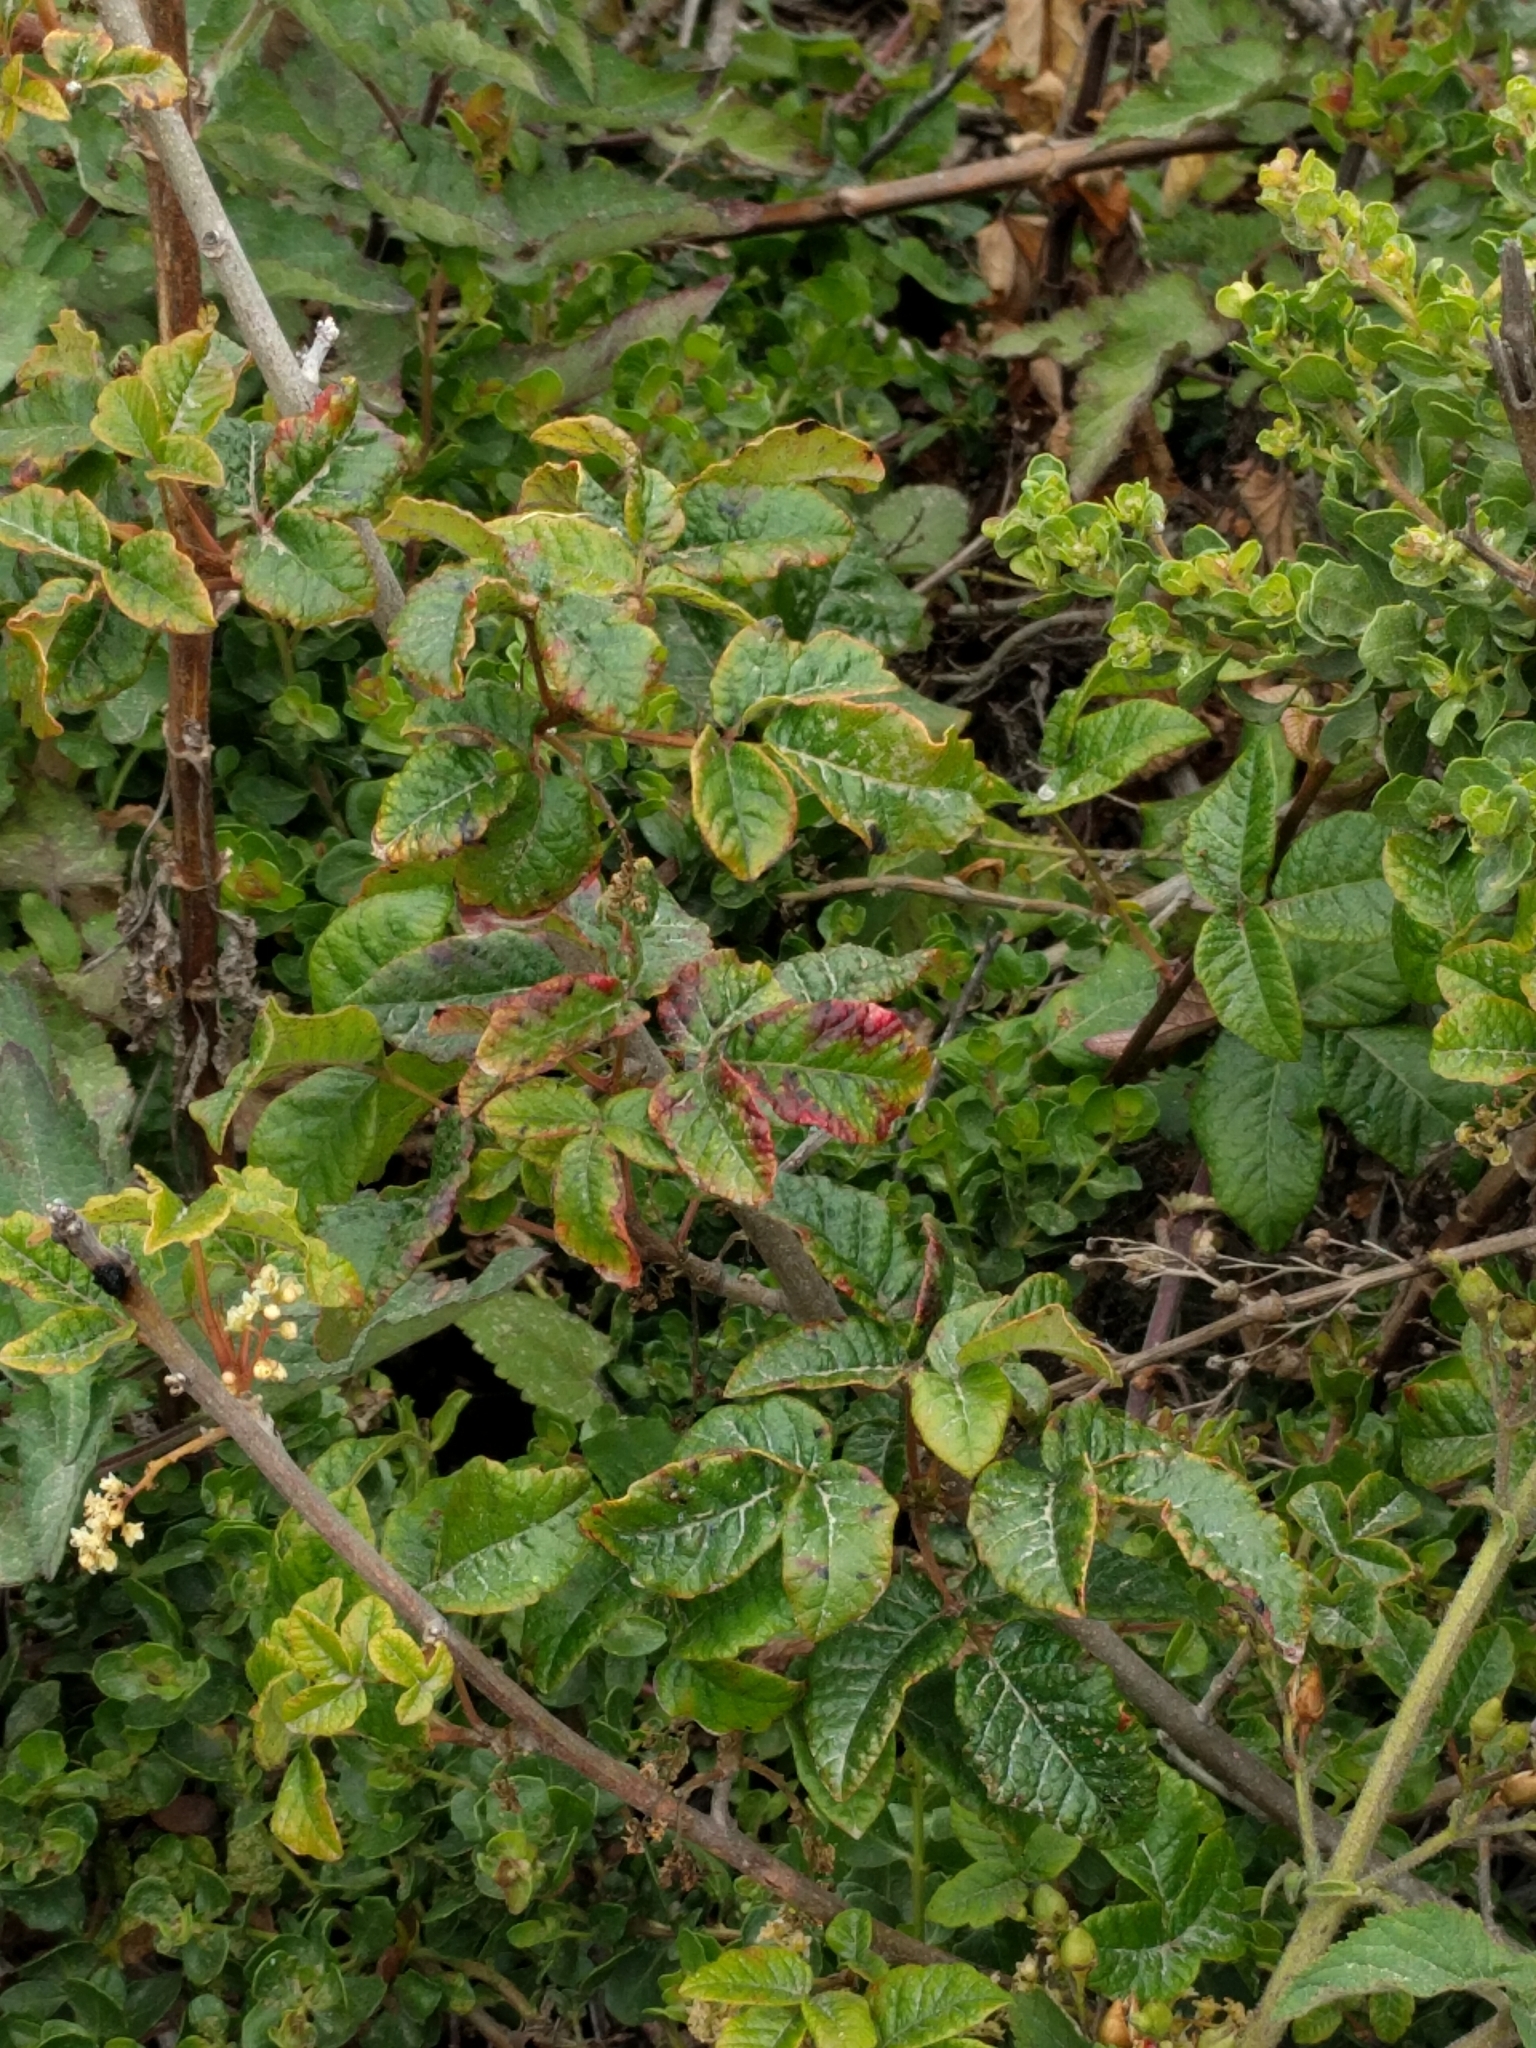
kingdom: Plantae
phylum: Tracheophyta
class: Magnoliopsida
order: Sapindales
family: Anacardiaceae
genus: Toxicodendron
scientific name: Toxicodendron diversilobum
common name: Pacific poison-oak
